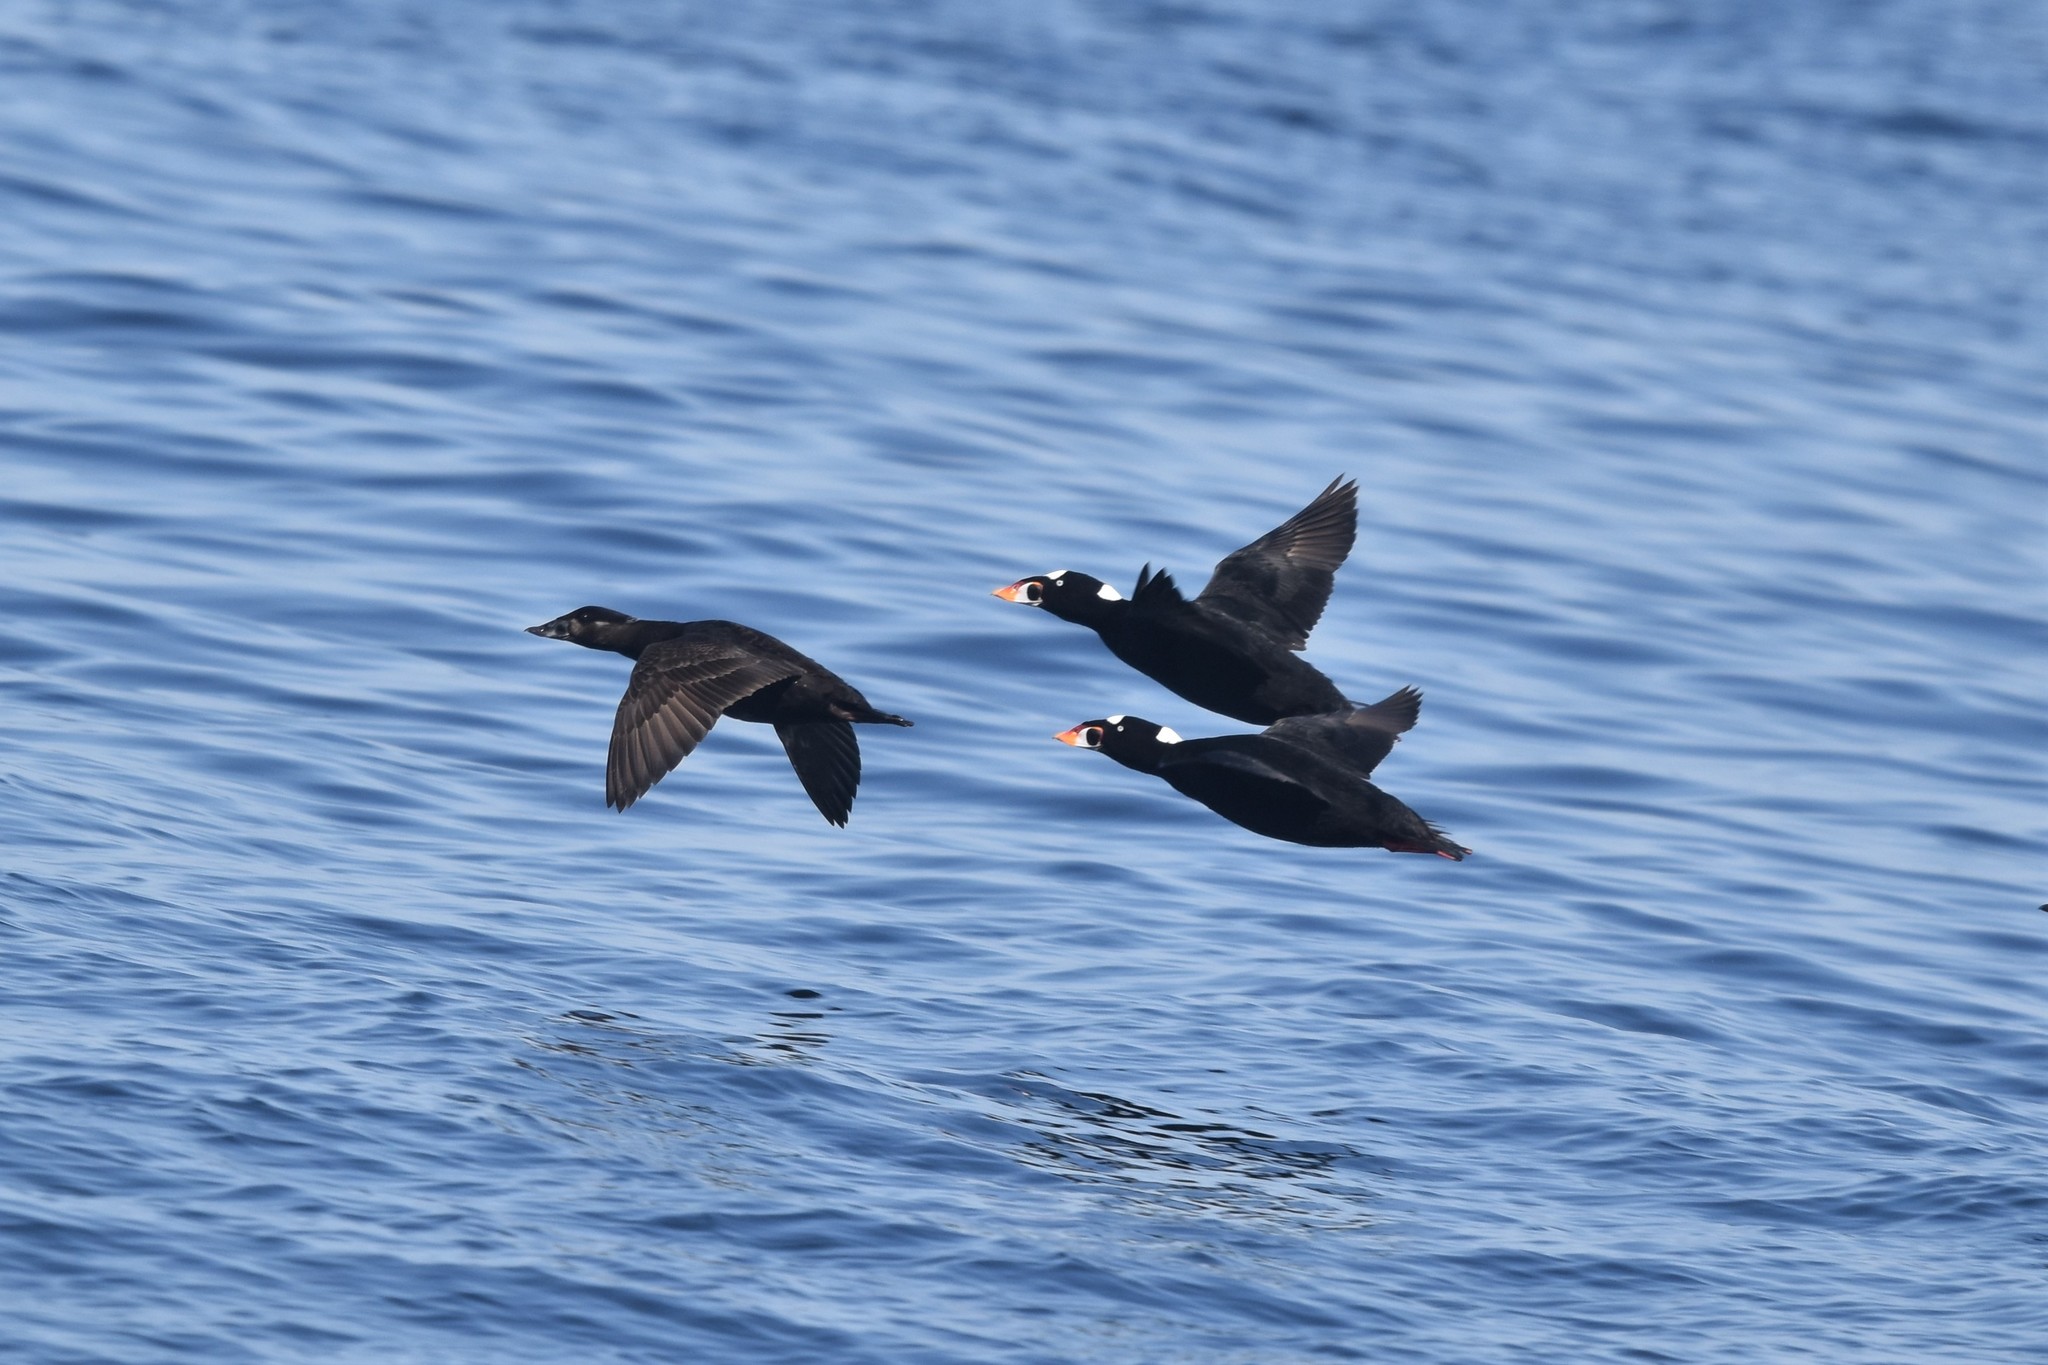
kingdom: Animalia
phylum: Chordata
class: Aves
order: Anseriformes
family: Anatidae
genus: Melanitta
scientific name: Melanitta perspicillata
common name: Surf scoter
